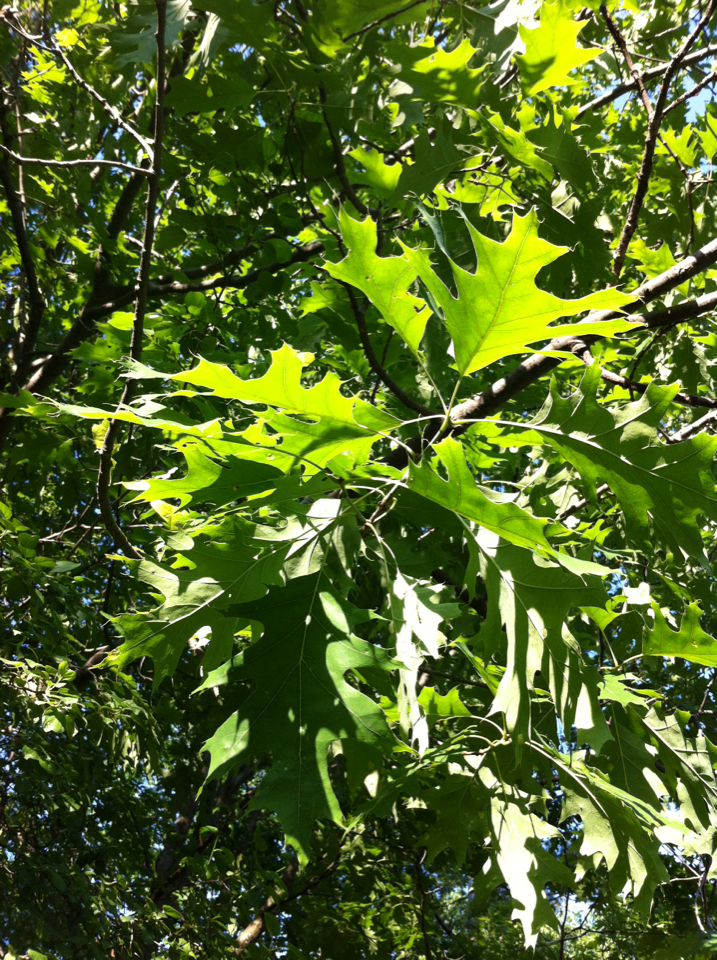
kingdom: Plantae
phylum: Tracheophyta
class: Magnoliopsida
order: Fagales
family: Fagaceae
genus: Quercus
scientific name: Quercus rubra
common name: Red oak
